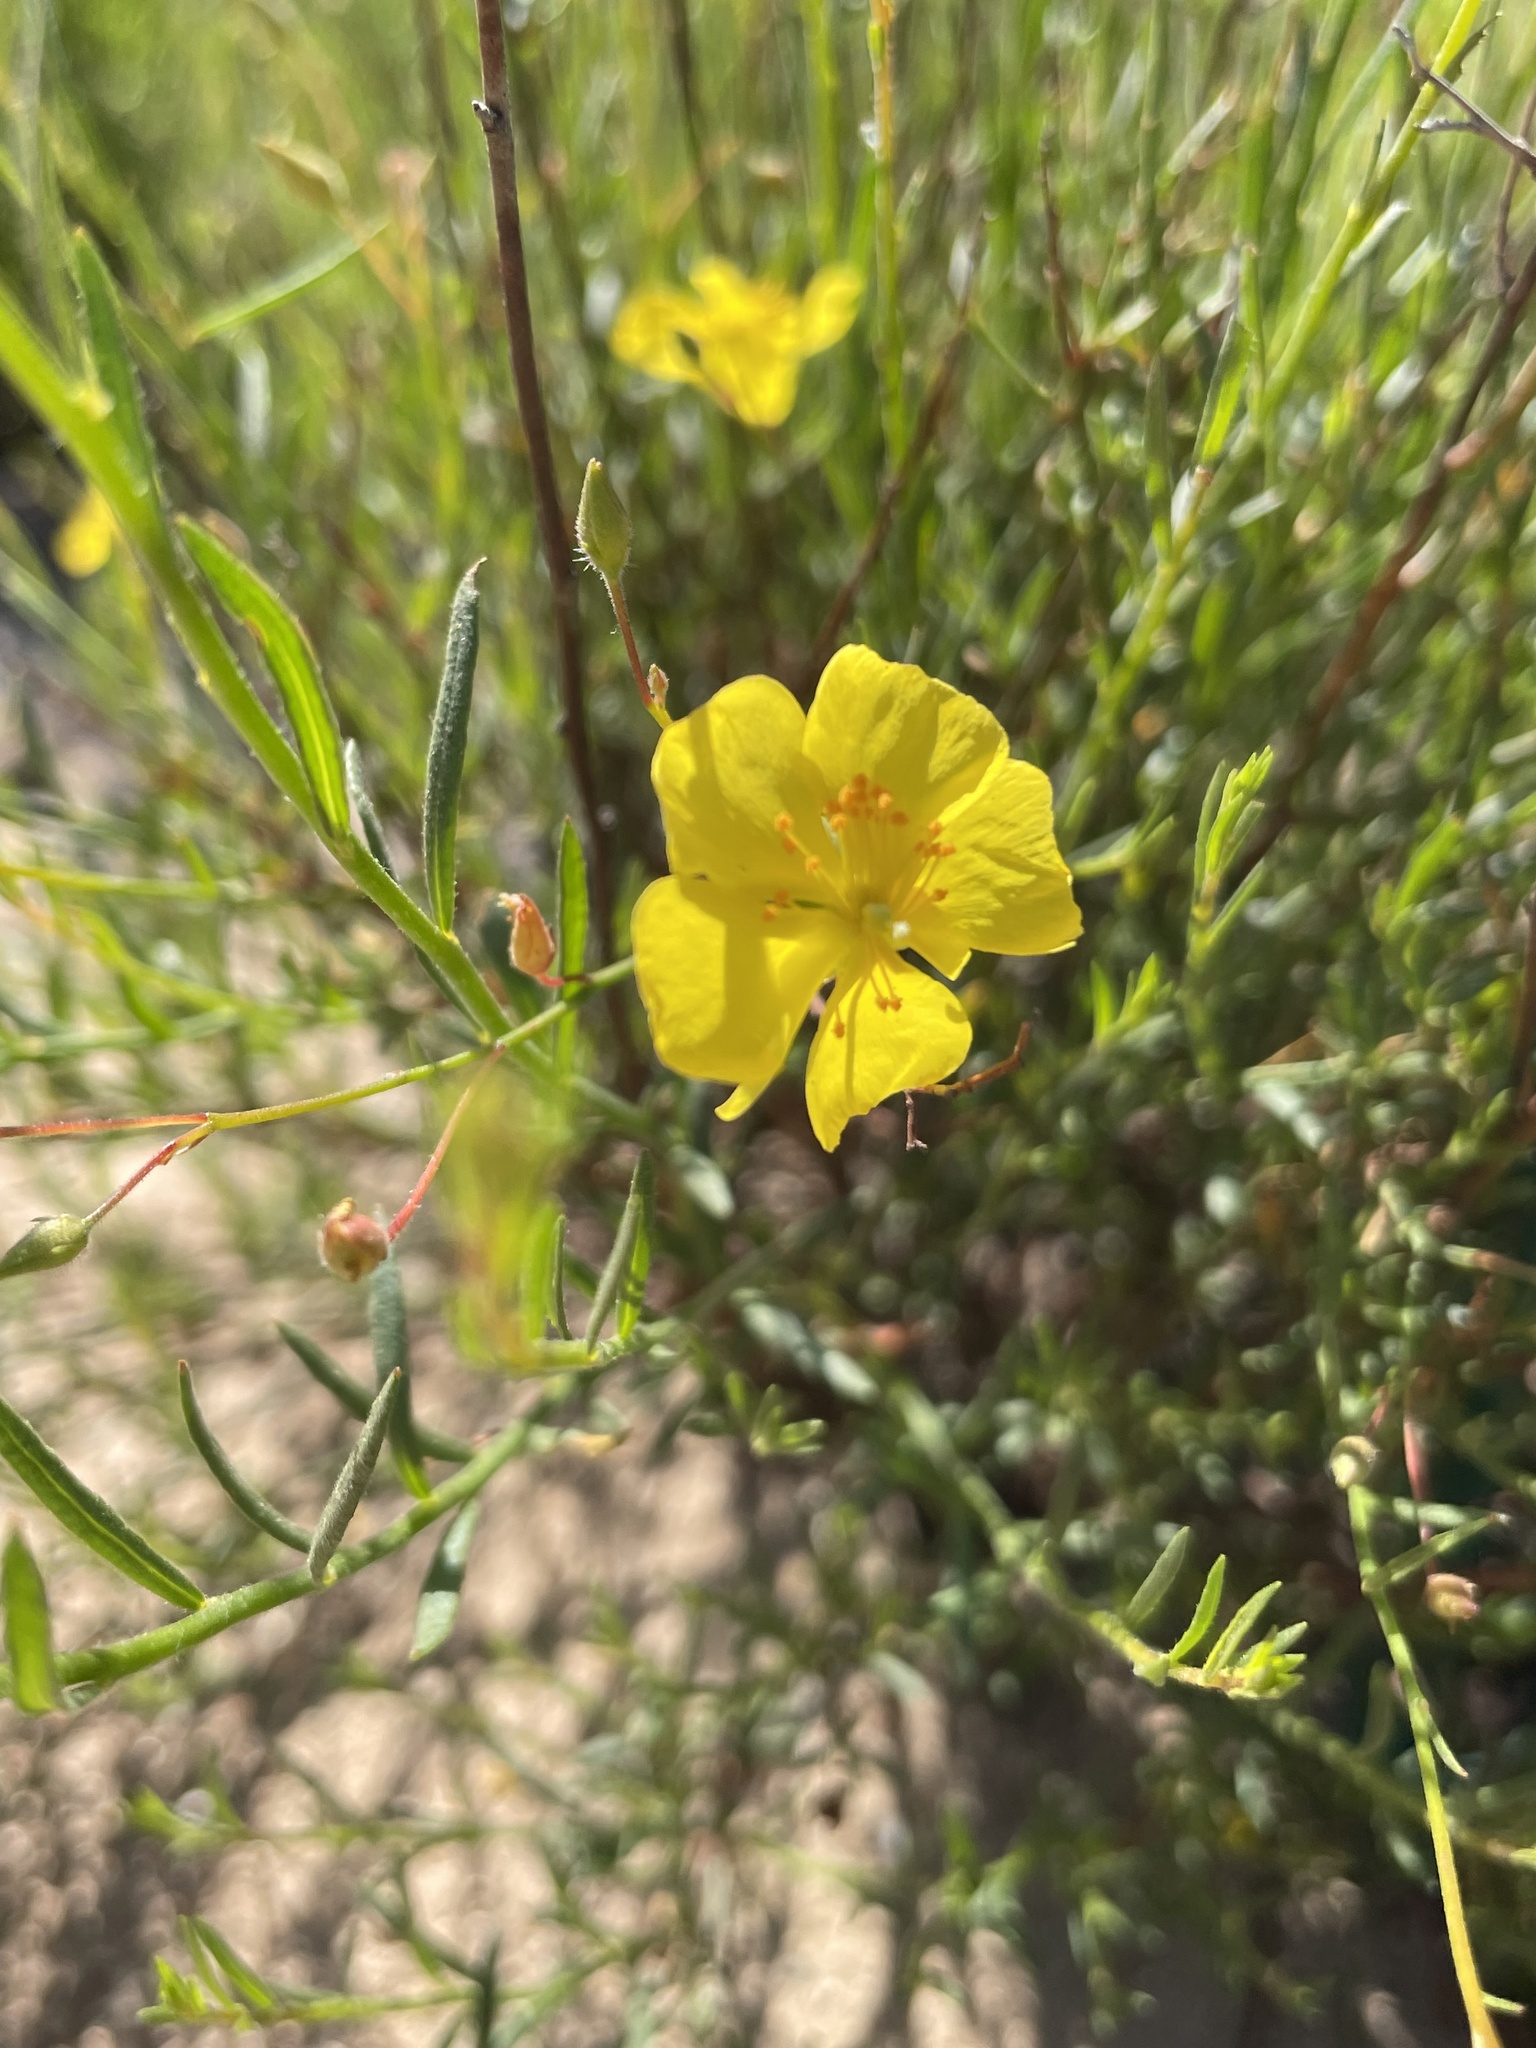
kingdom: Plantae
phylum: Tracheophyta
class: Magnoliopsida
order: Malvales
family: Cistaceae
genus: Crocanthemum
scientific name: Crocanthemum scoparium
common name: Broom-rose
